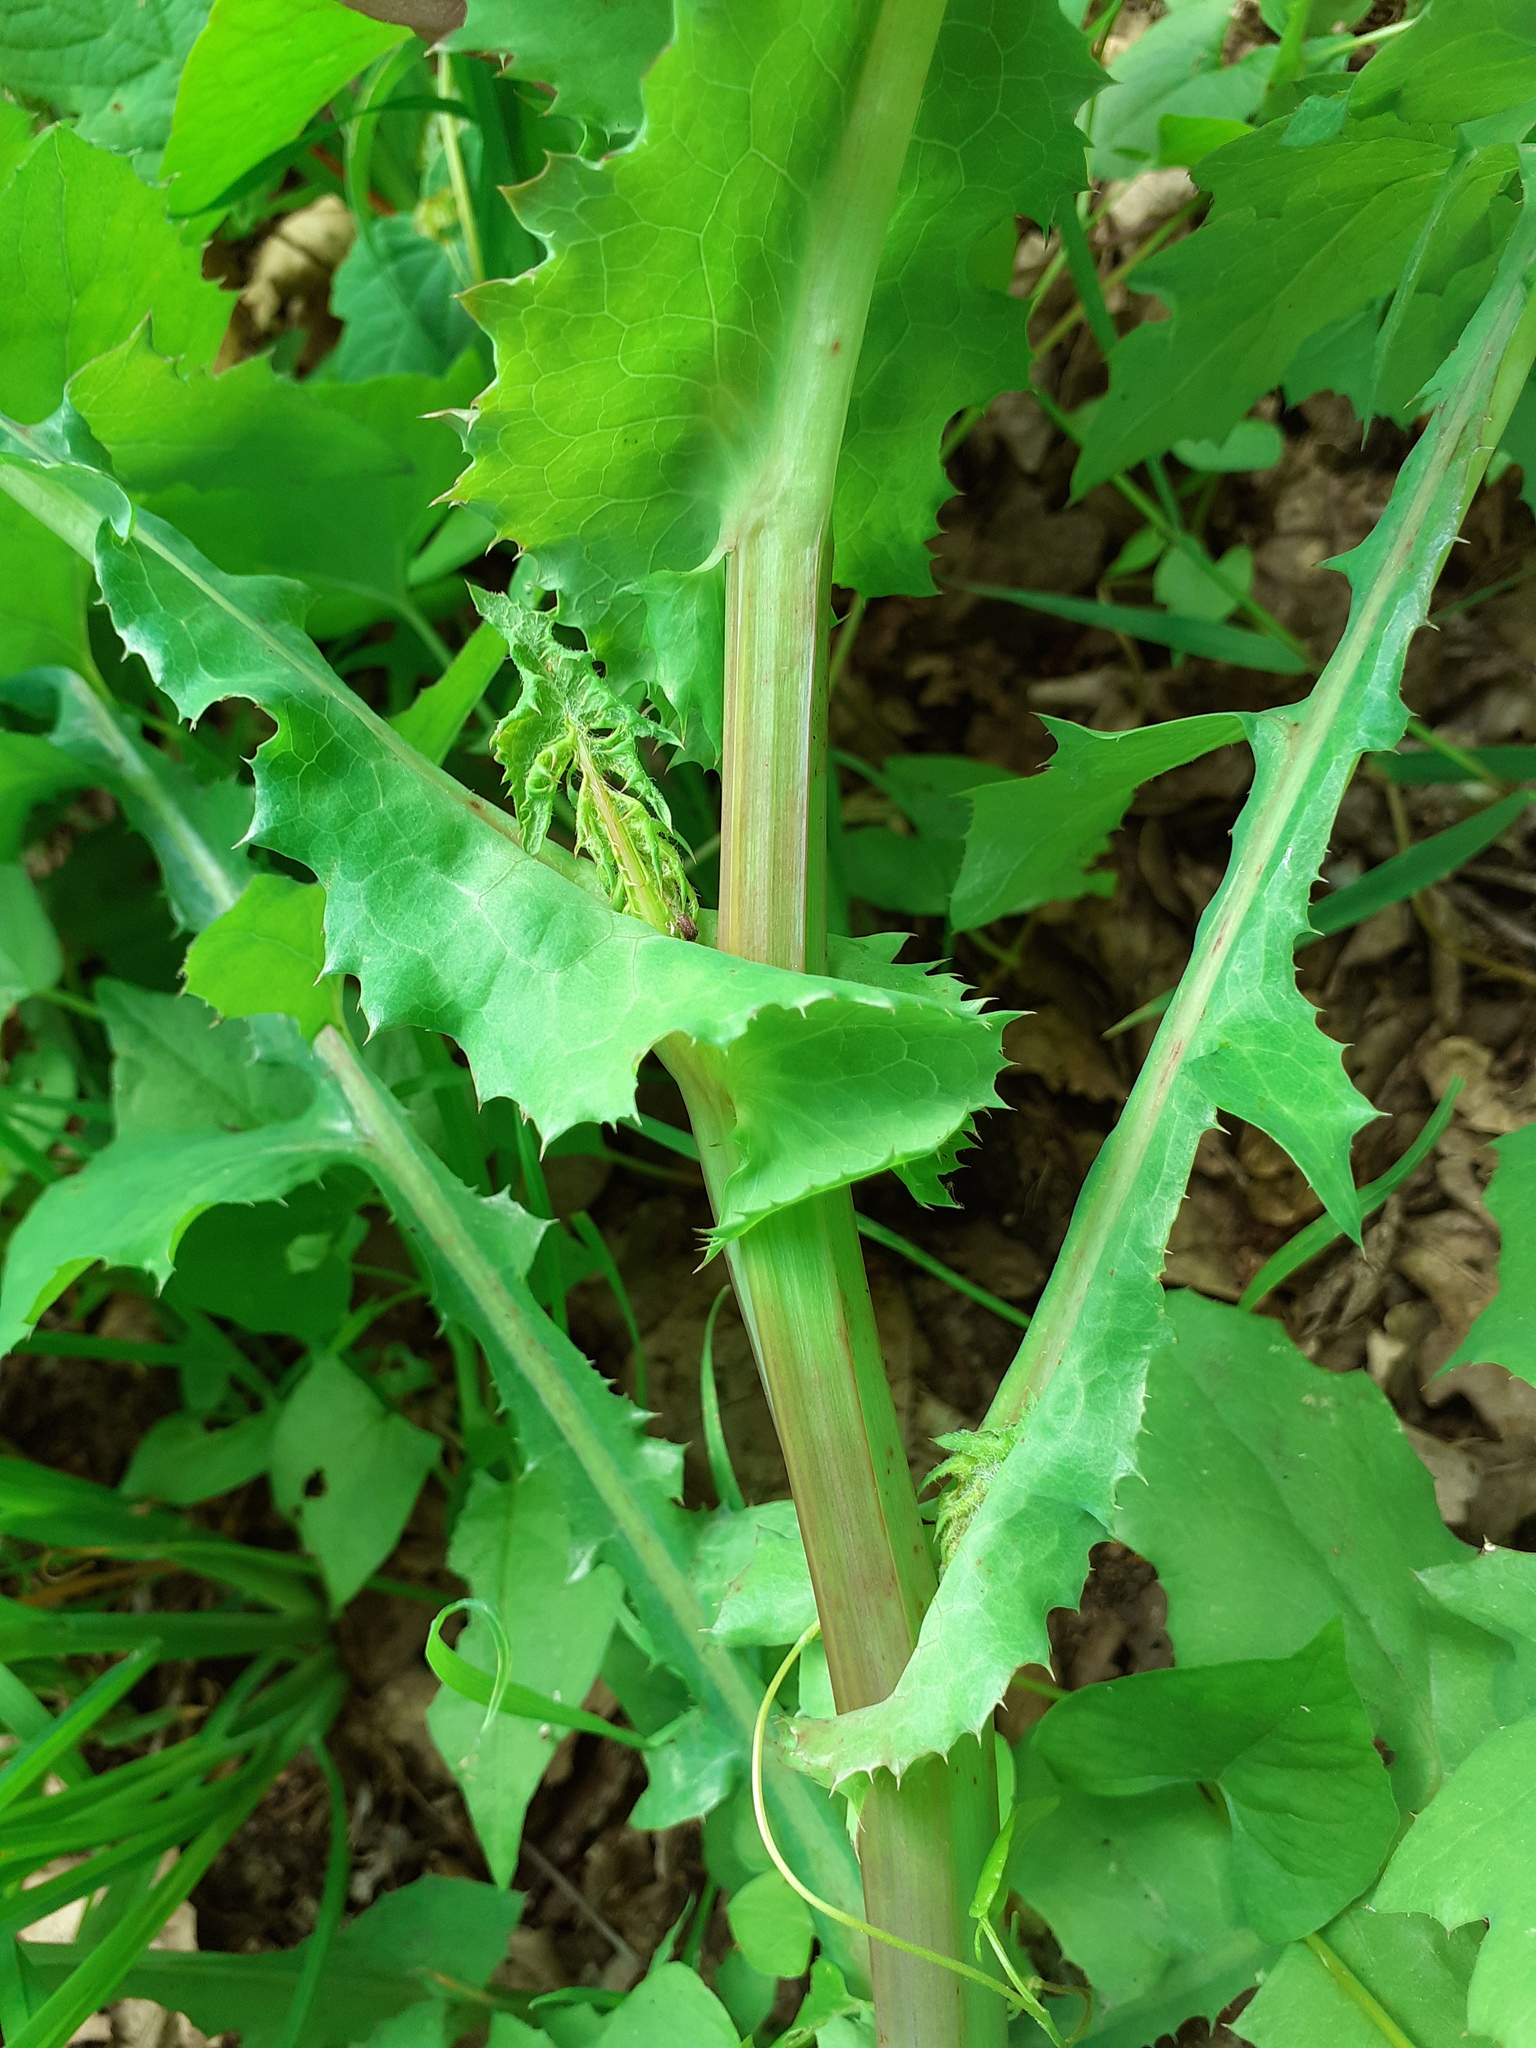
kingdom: Plantae
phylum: Tracheophyta
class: Magnoliopsida
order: Asterales
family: Asteraceae
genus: Sonchus
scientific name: Sonchus asper
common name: Prickly sow-thistle
